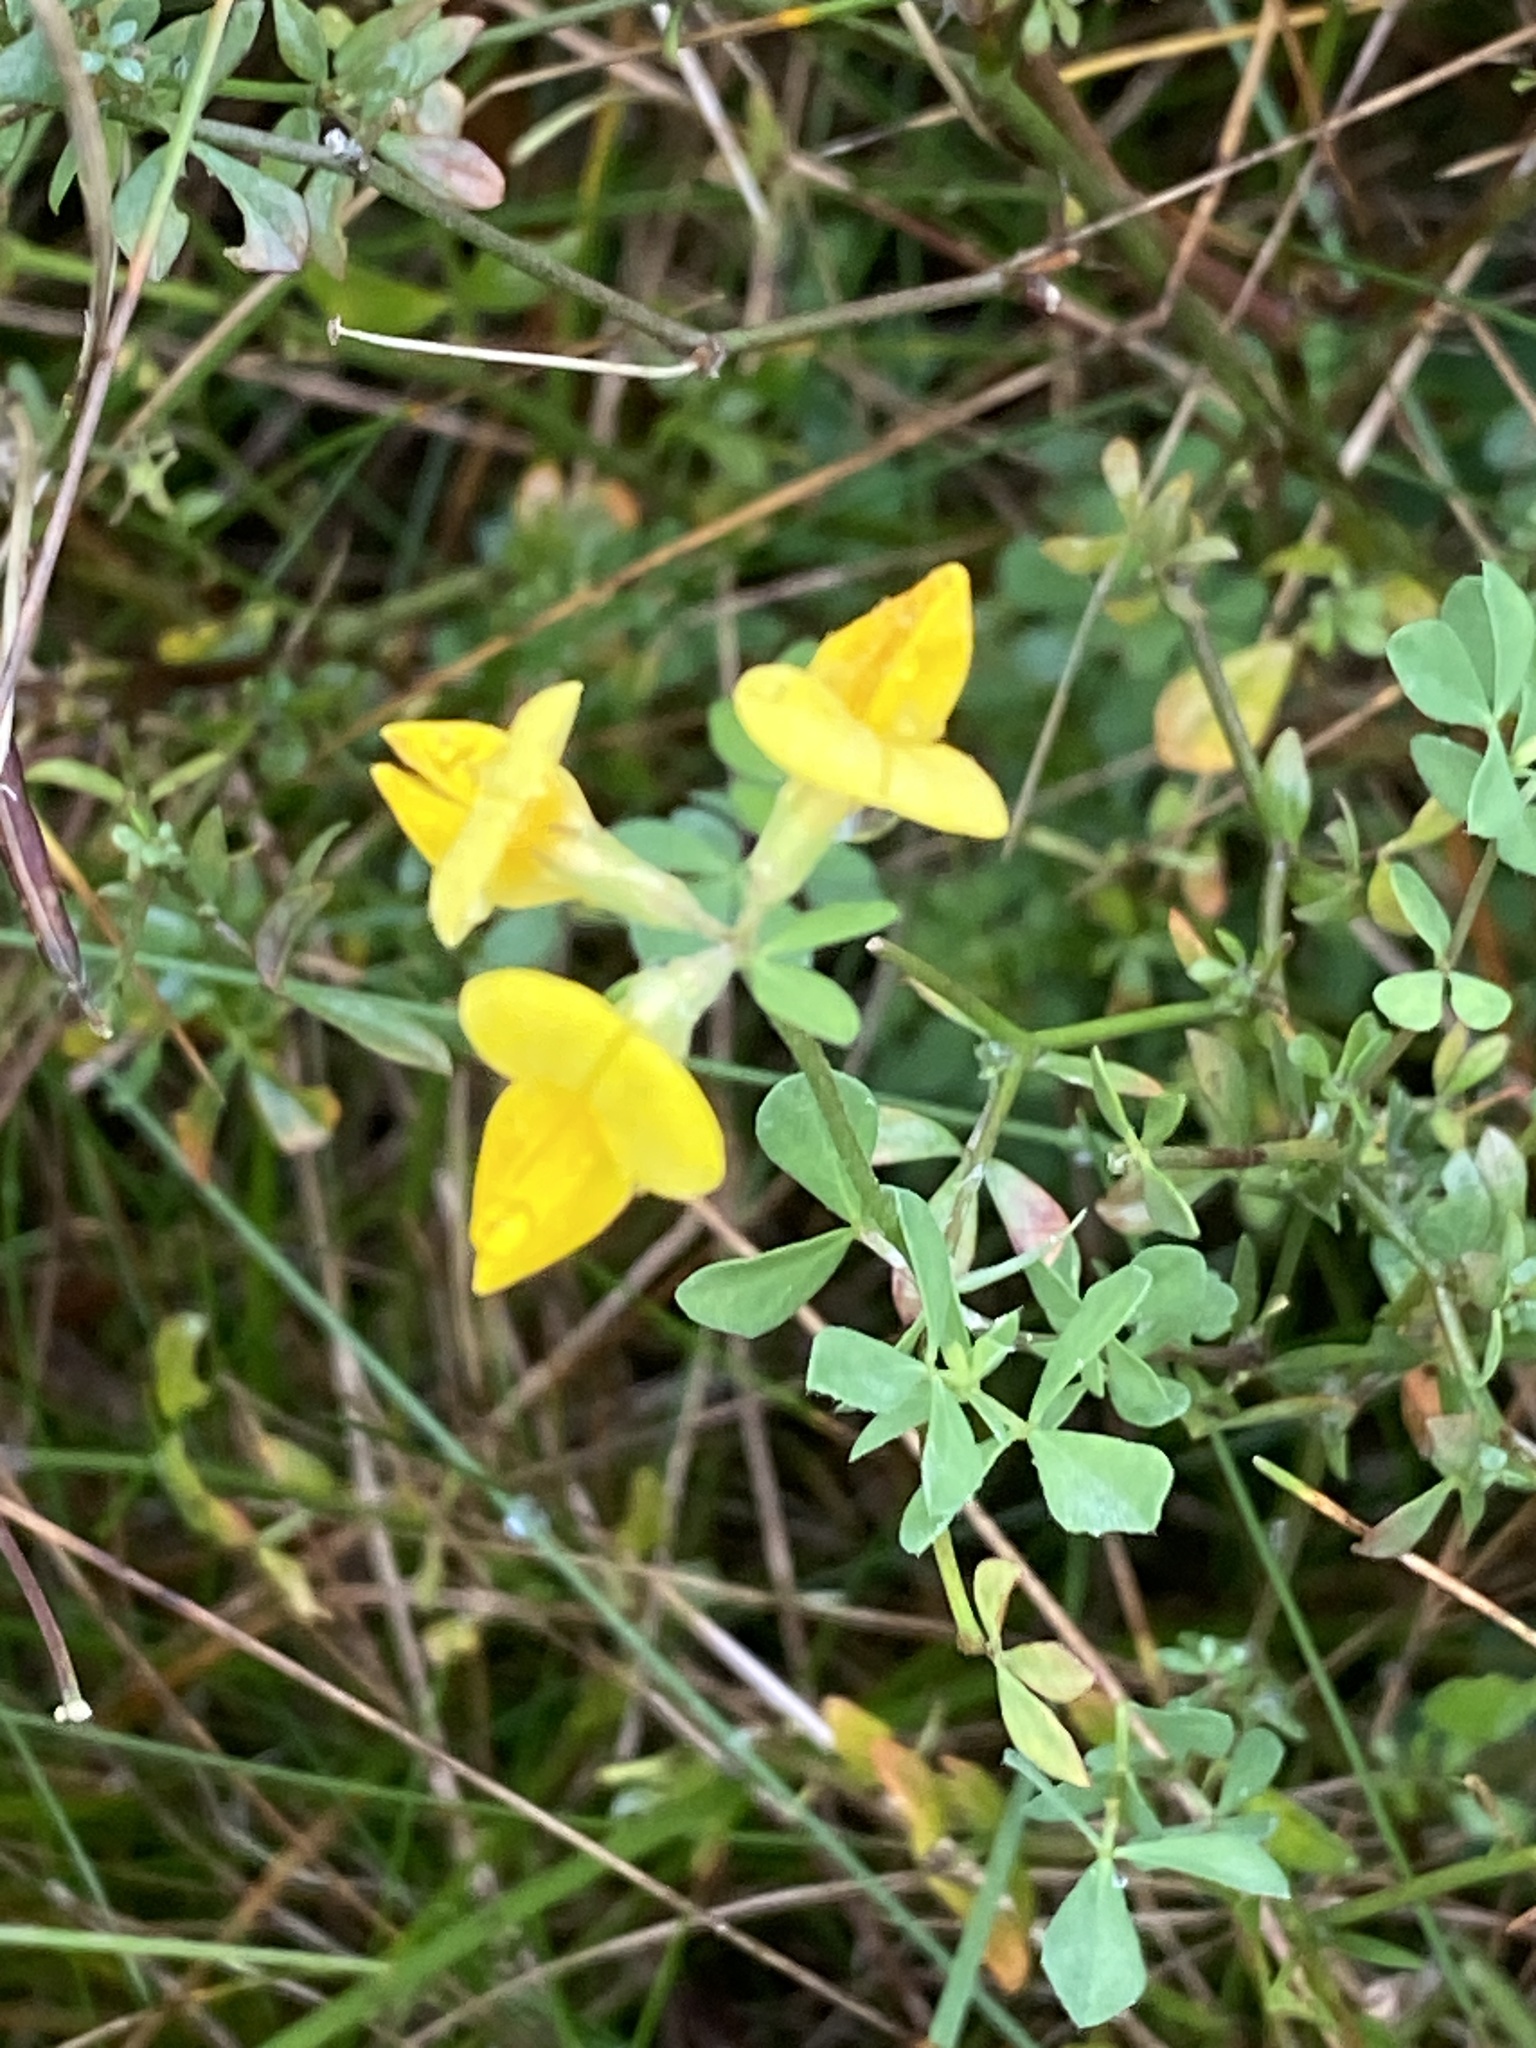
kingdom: Plantae
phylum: Tracheophyta
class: Magnoliopsida
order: Fabales
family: Fabaceae
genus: Lotus
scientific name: Lotus corniculatus
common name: Common bird's-foot-trefoil
